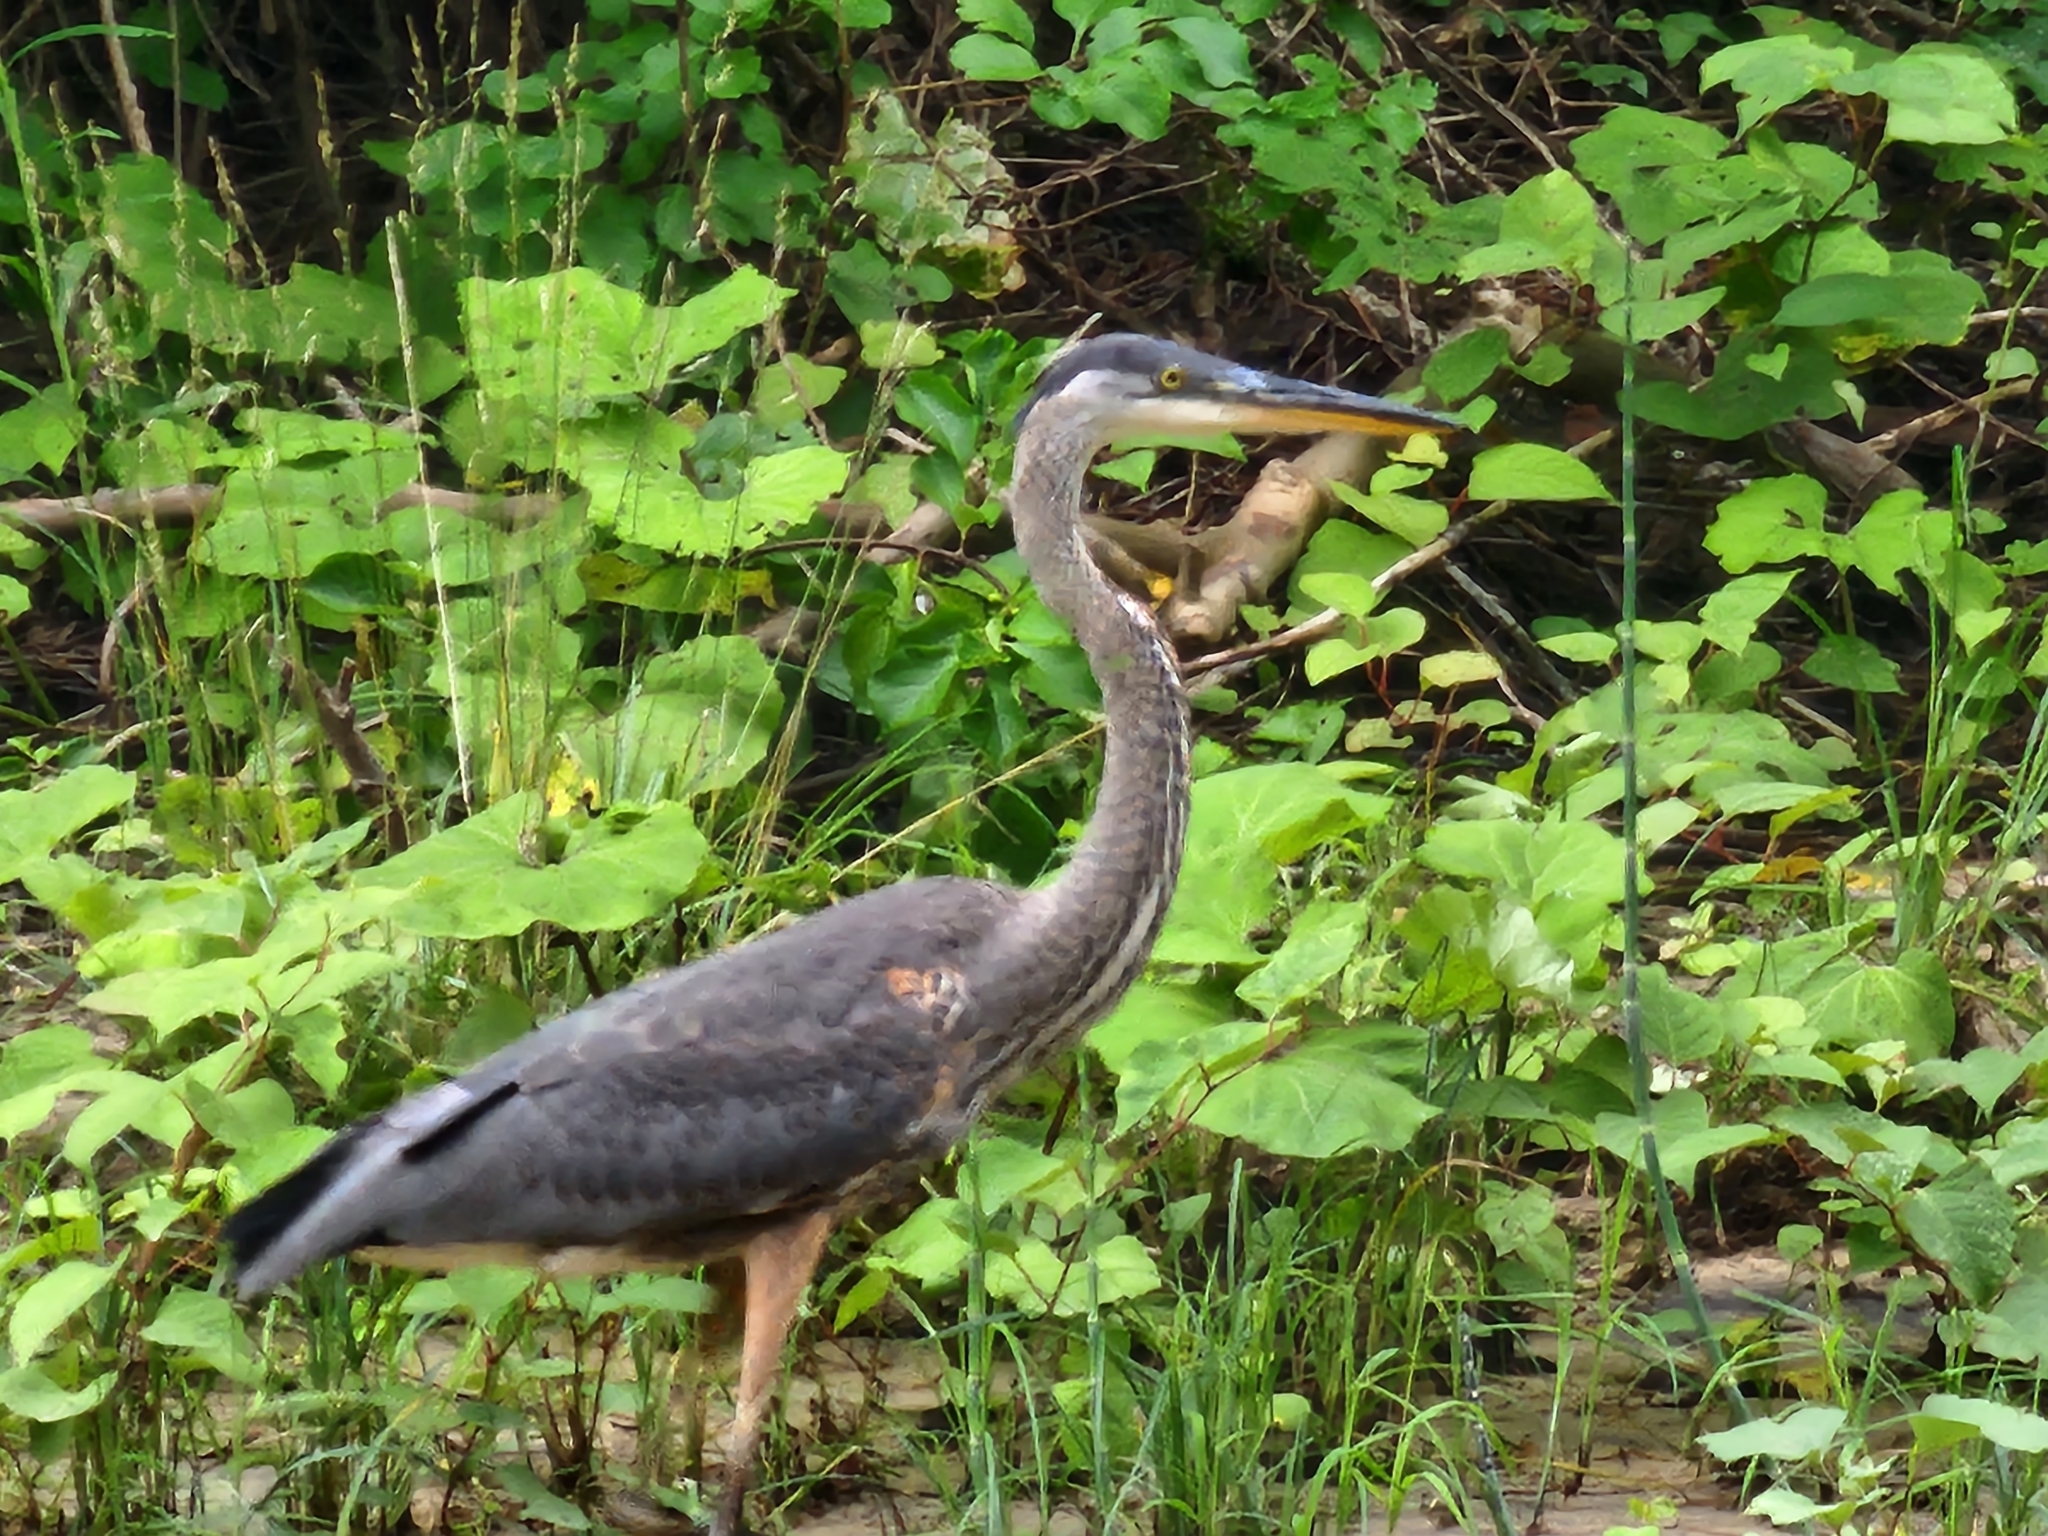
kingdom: Animalia
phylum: Chordata
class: Aves
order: Pelecaniformes
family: Ardeidae
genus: Ardea
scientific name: Ardea herodias
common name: Great blue heron
